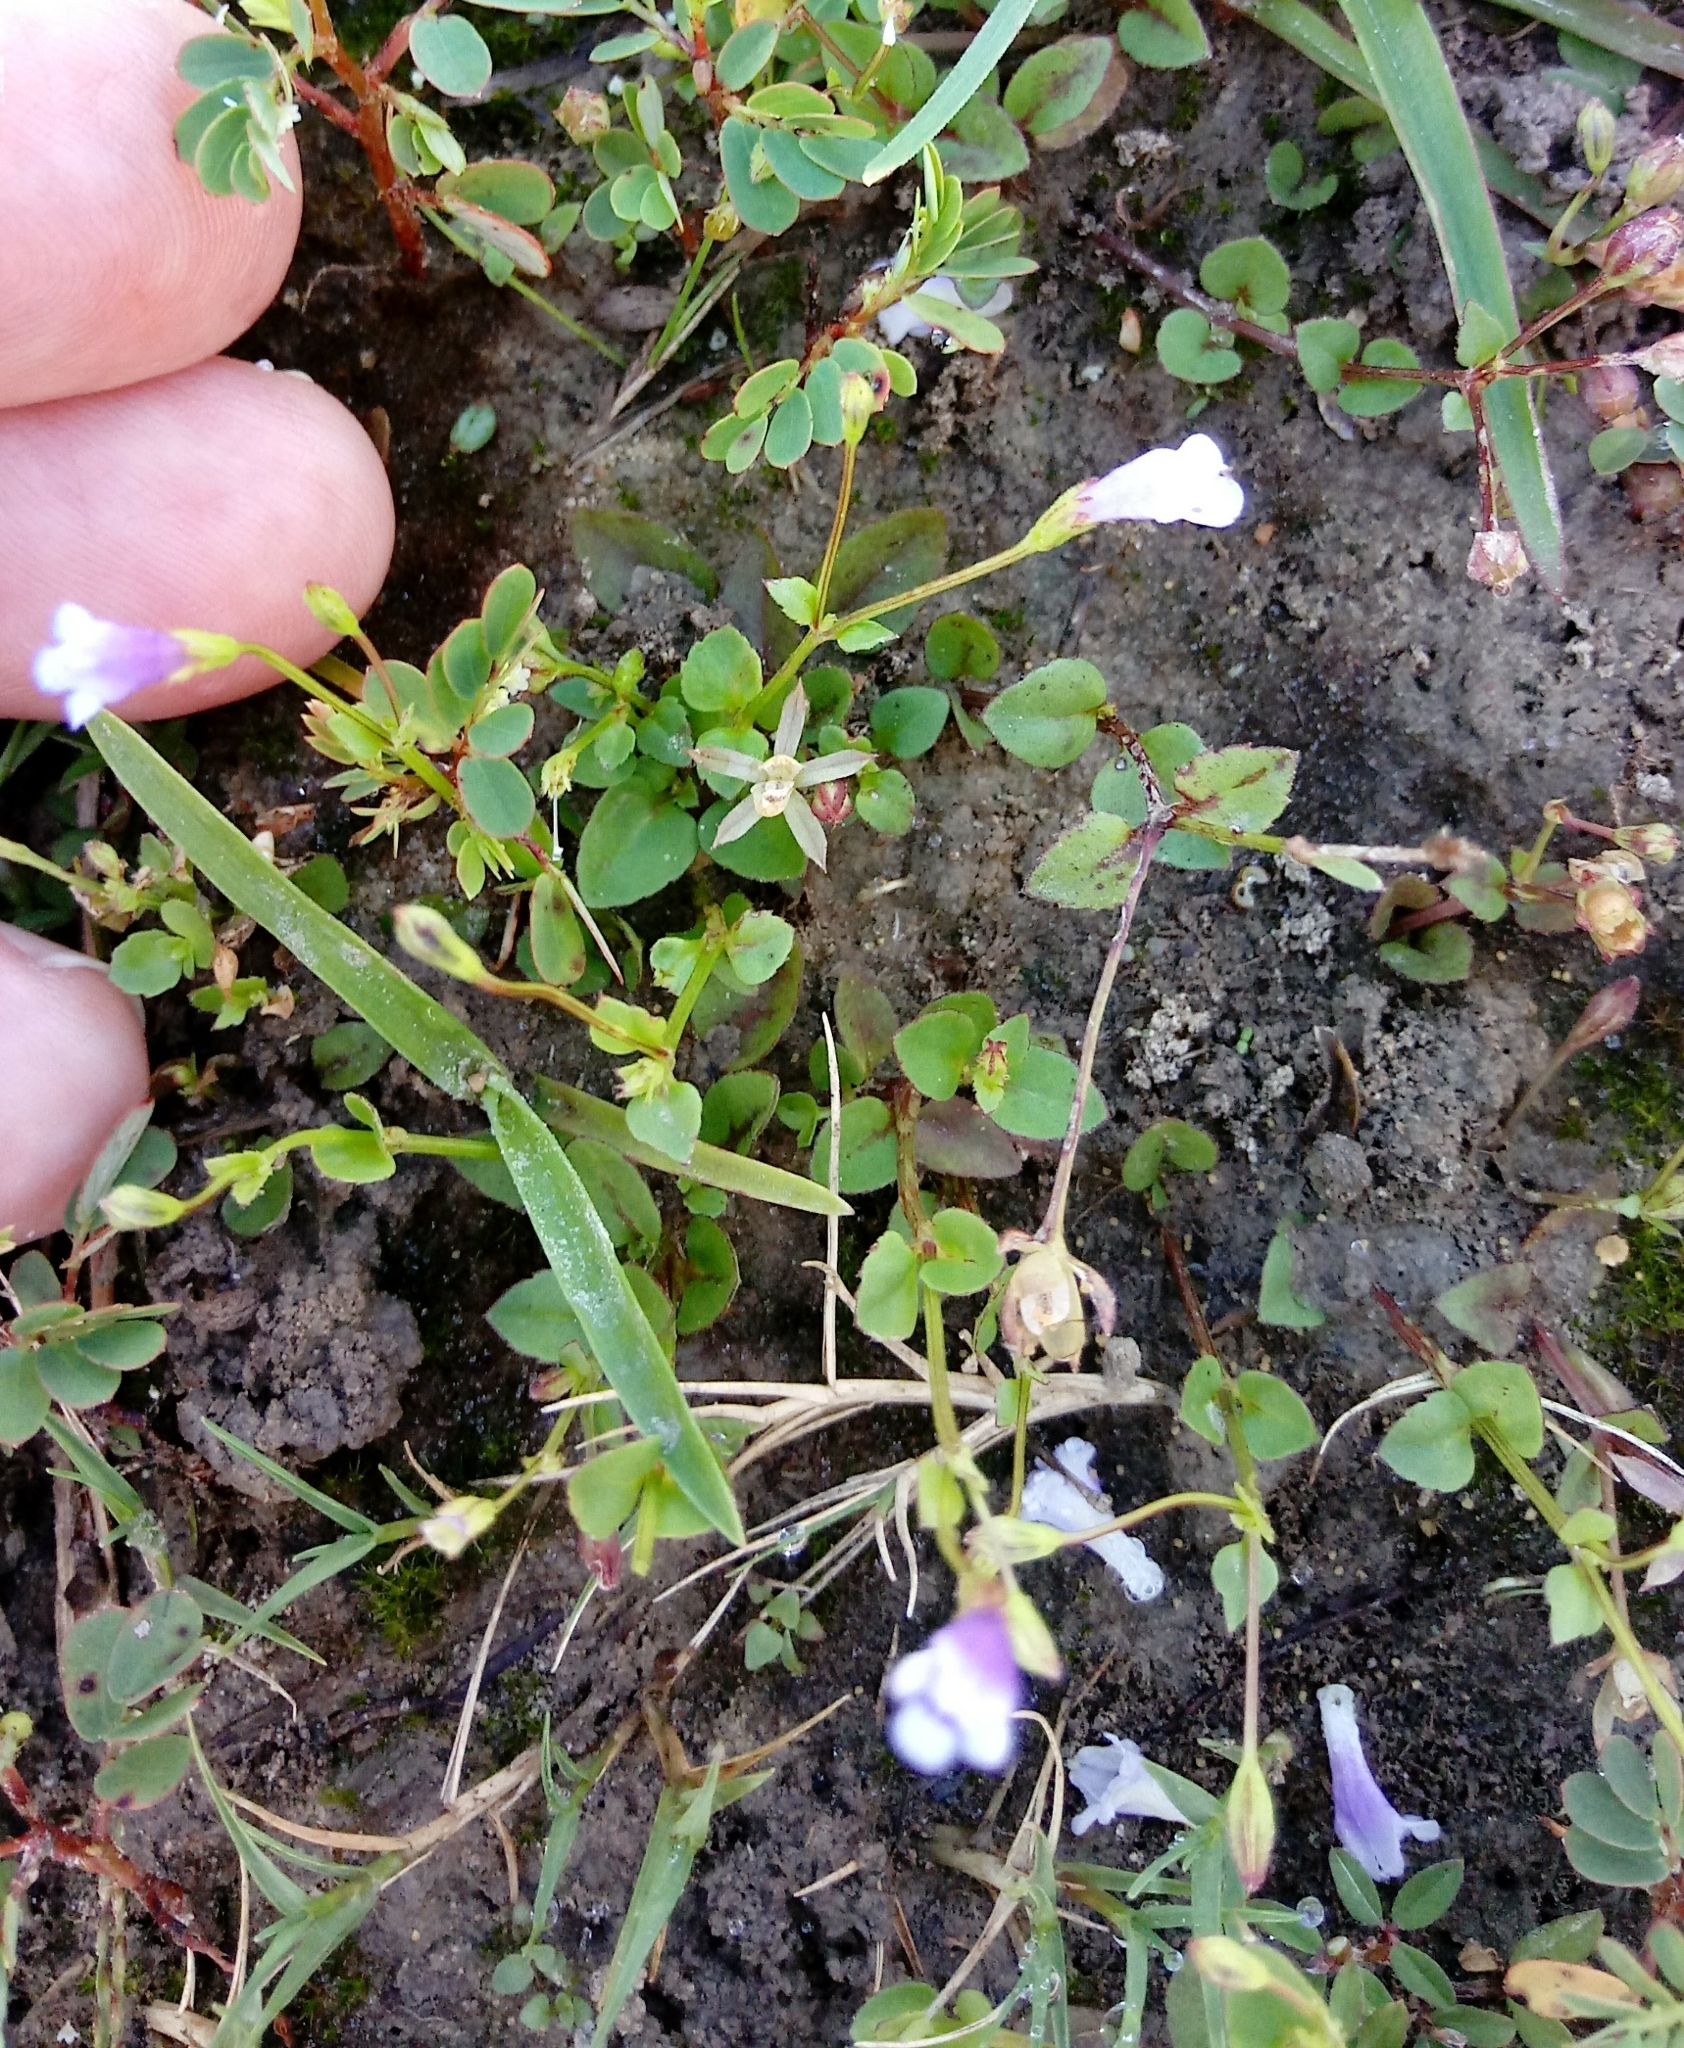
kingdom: Plantae
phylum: Tracheophyta
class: Magnoliopsida
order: Lamiales
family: Linderniaceae
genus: Torenia
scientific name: Torenia crustacea
